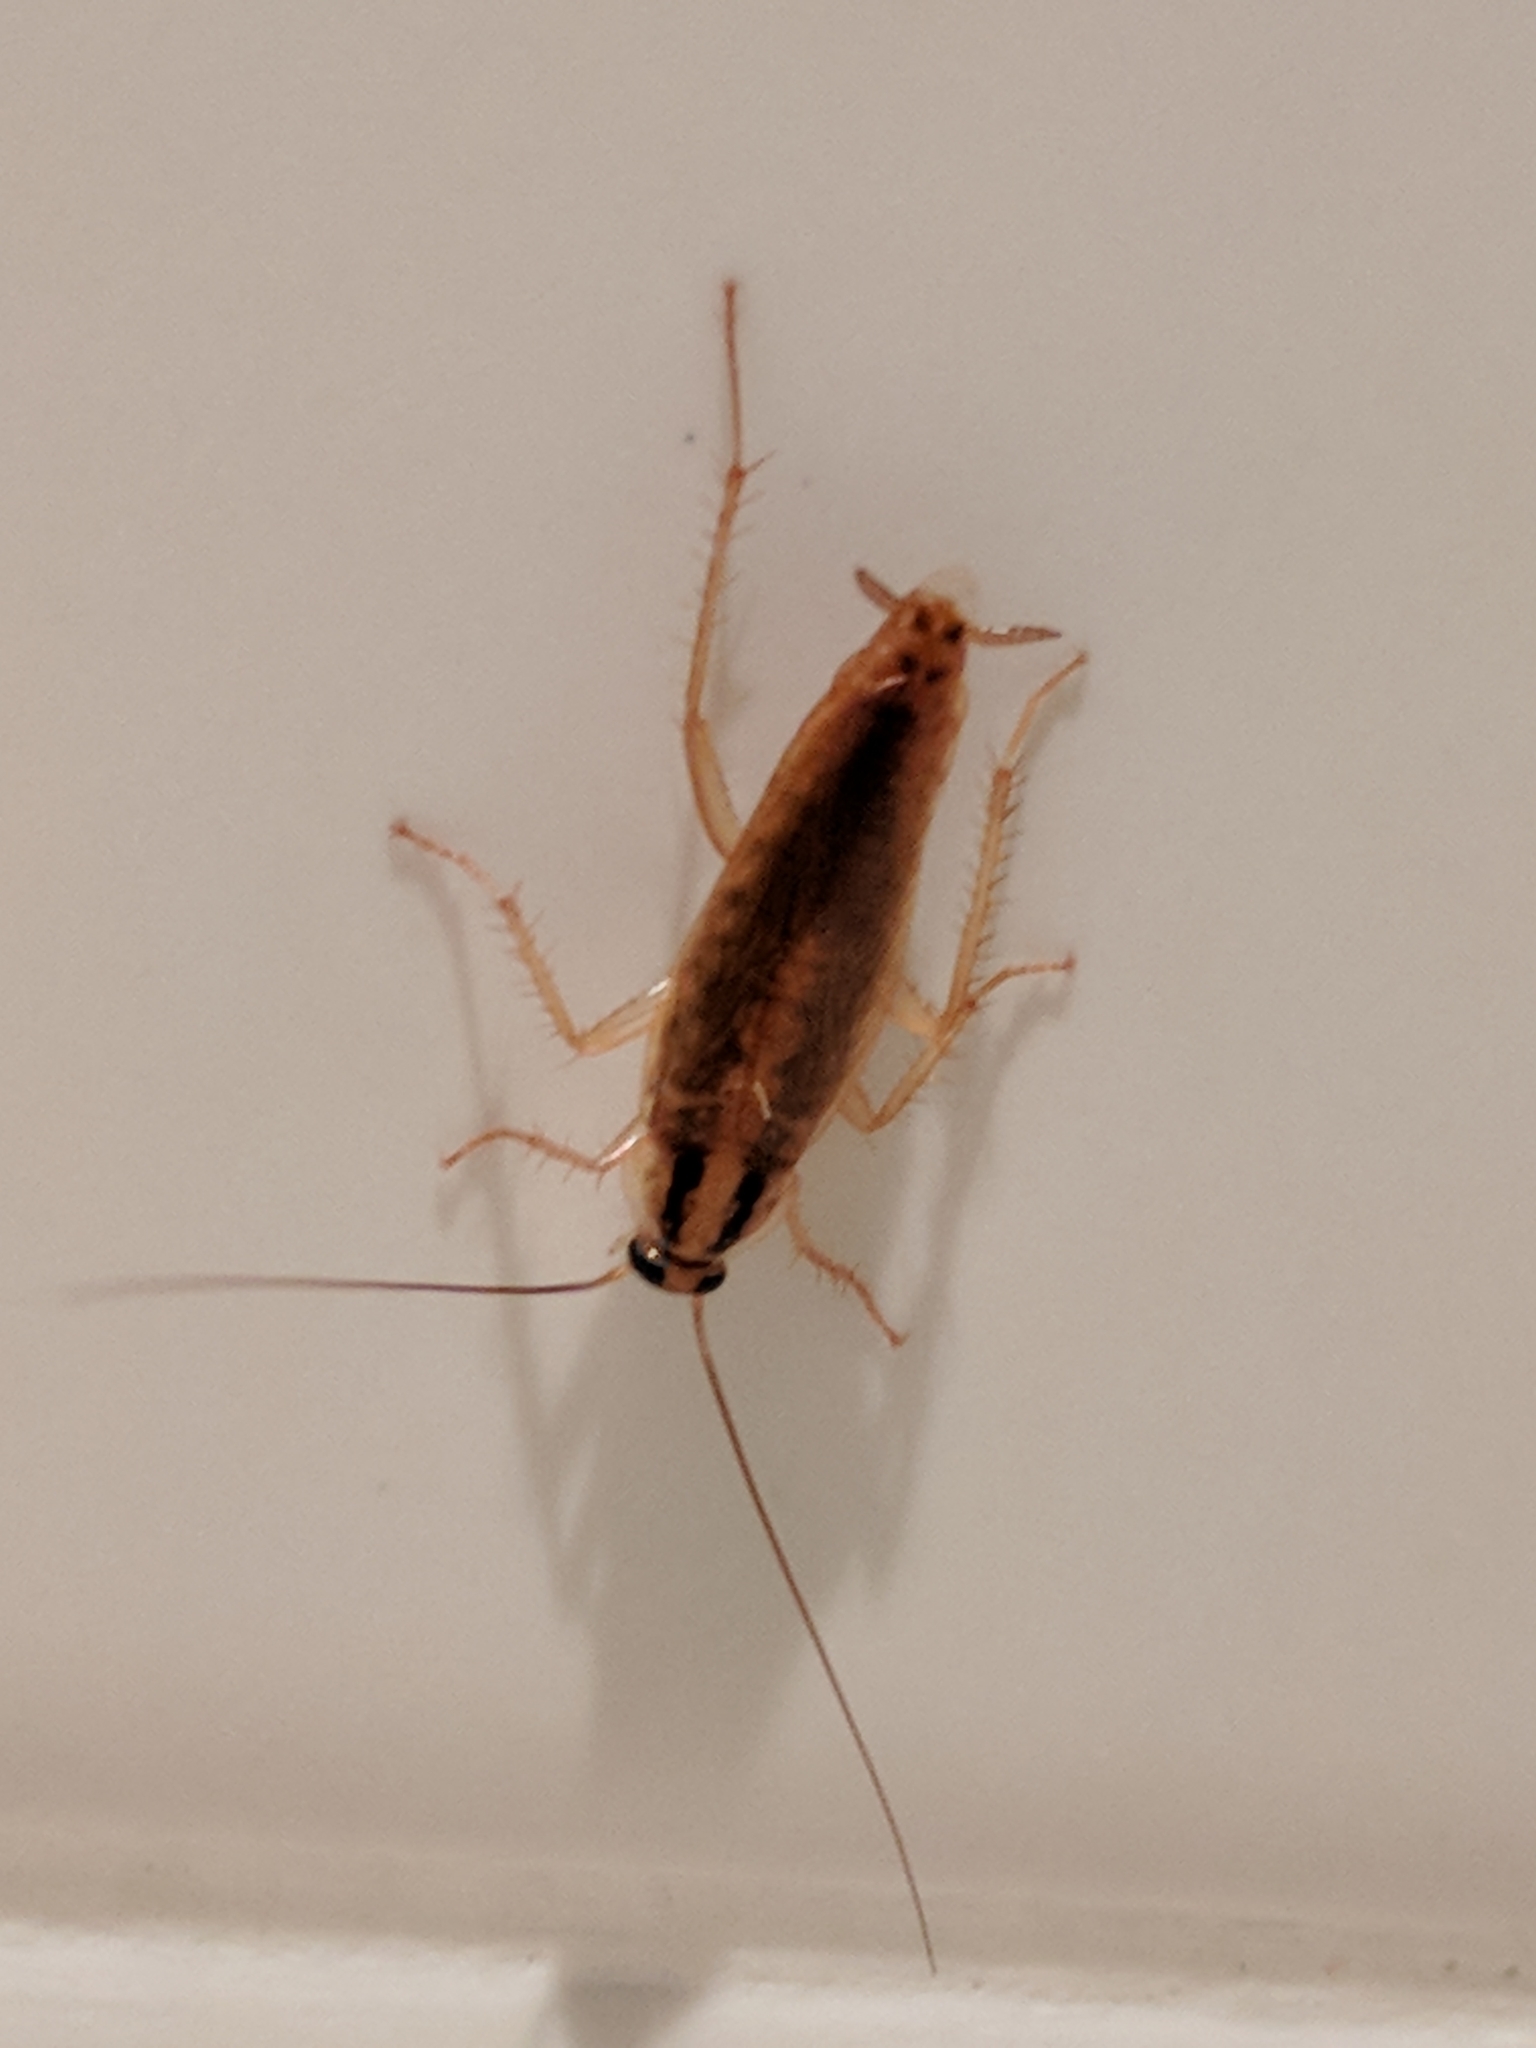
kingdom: Animalia
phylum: Arthropoda
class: Insecta
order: Blattodea
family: Ectobiidae
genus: Blattella
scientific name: Blattella germanica
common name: German cockroach
